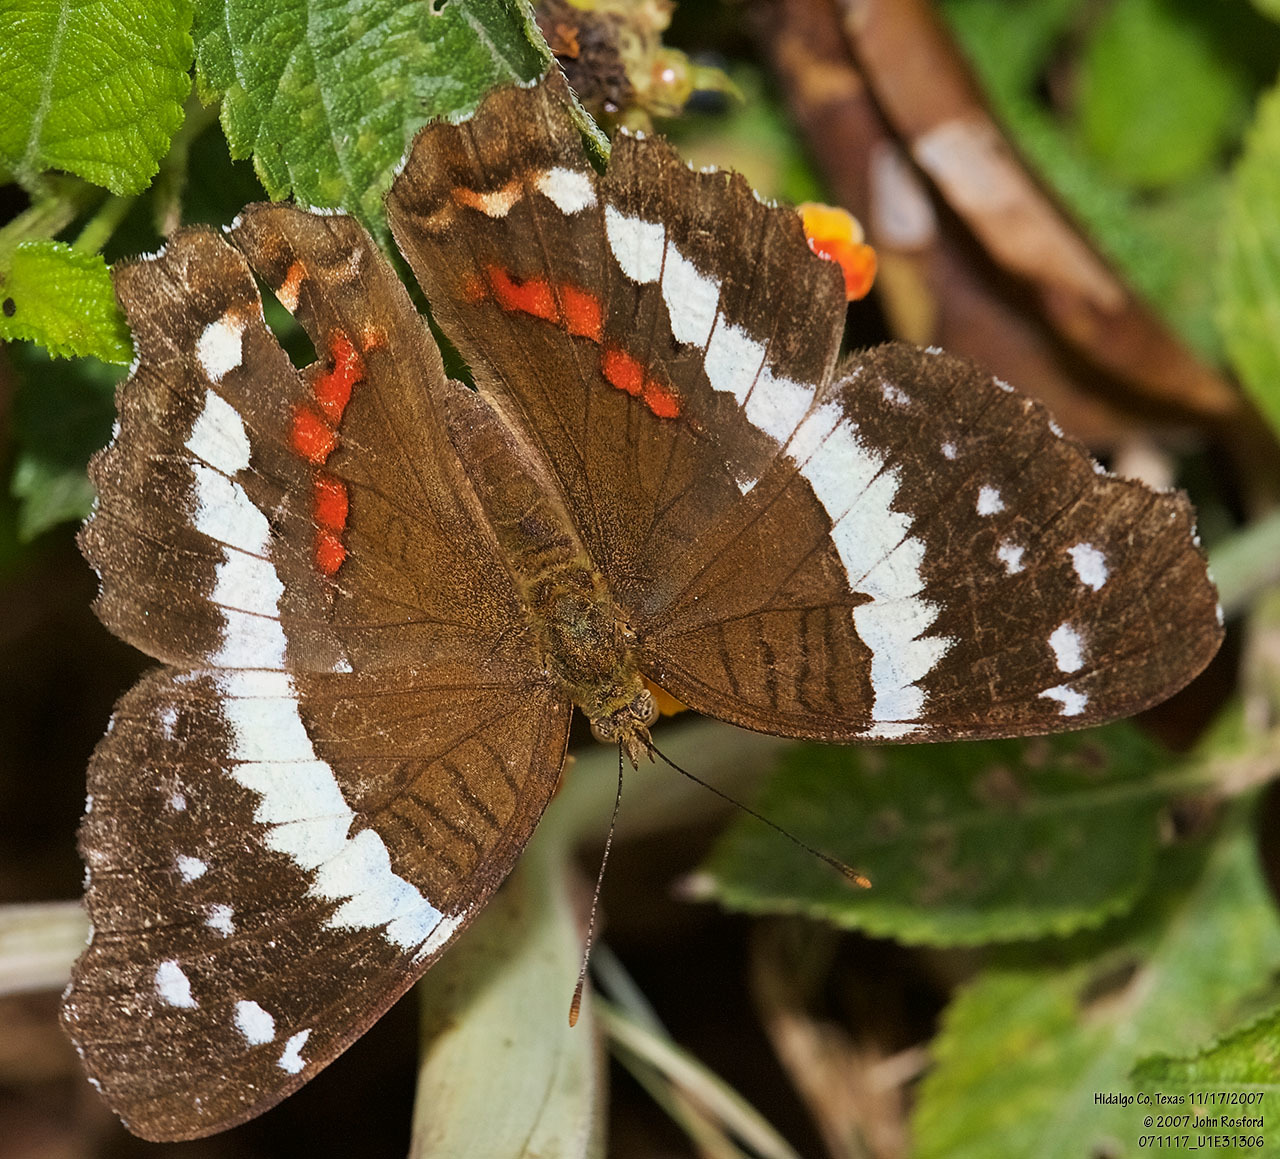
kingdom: Animalia
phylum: Arthropoda
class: Insecta
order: Lepidoptera
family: Nymphalidae
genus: Anartia
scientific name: Anartia fatima
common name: Banded peacock
